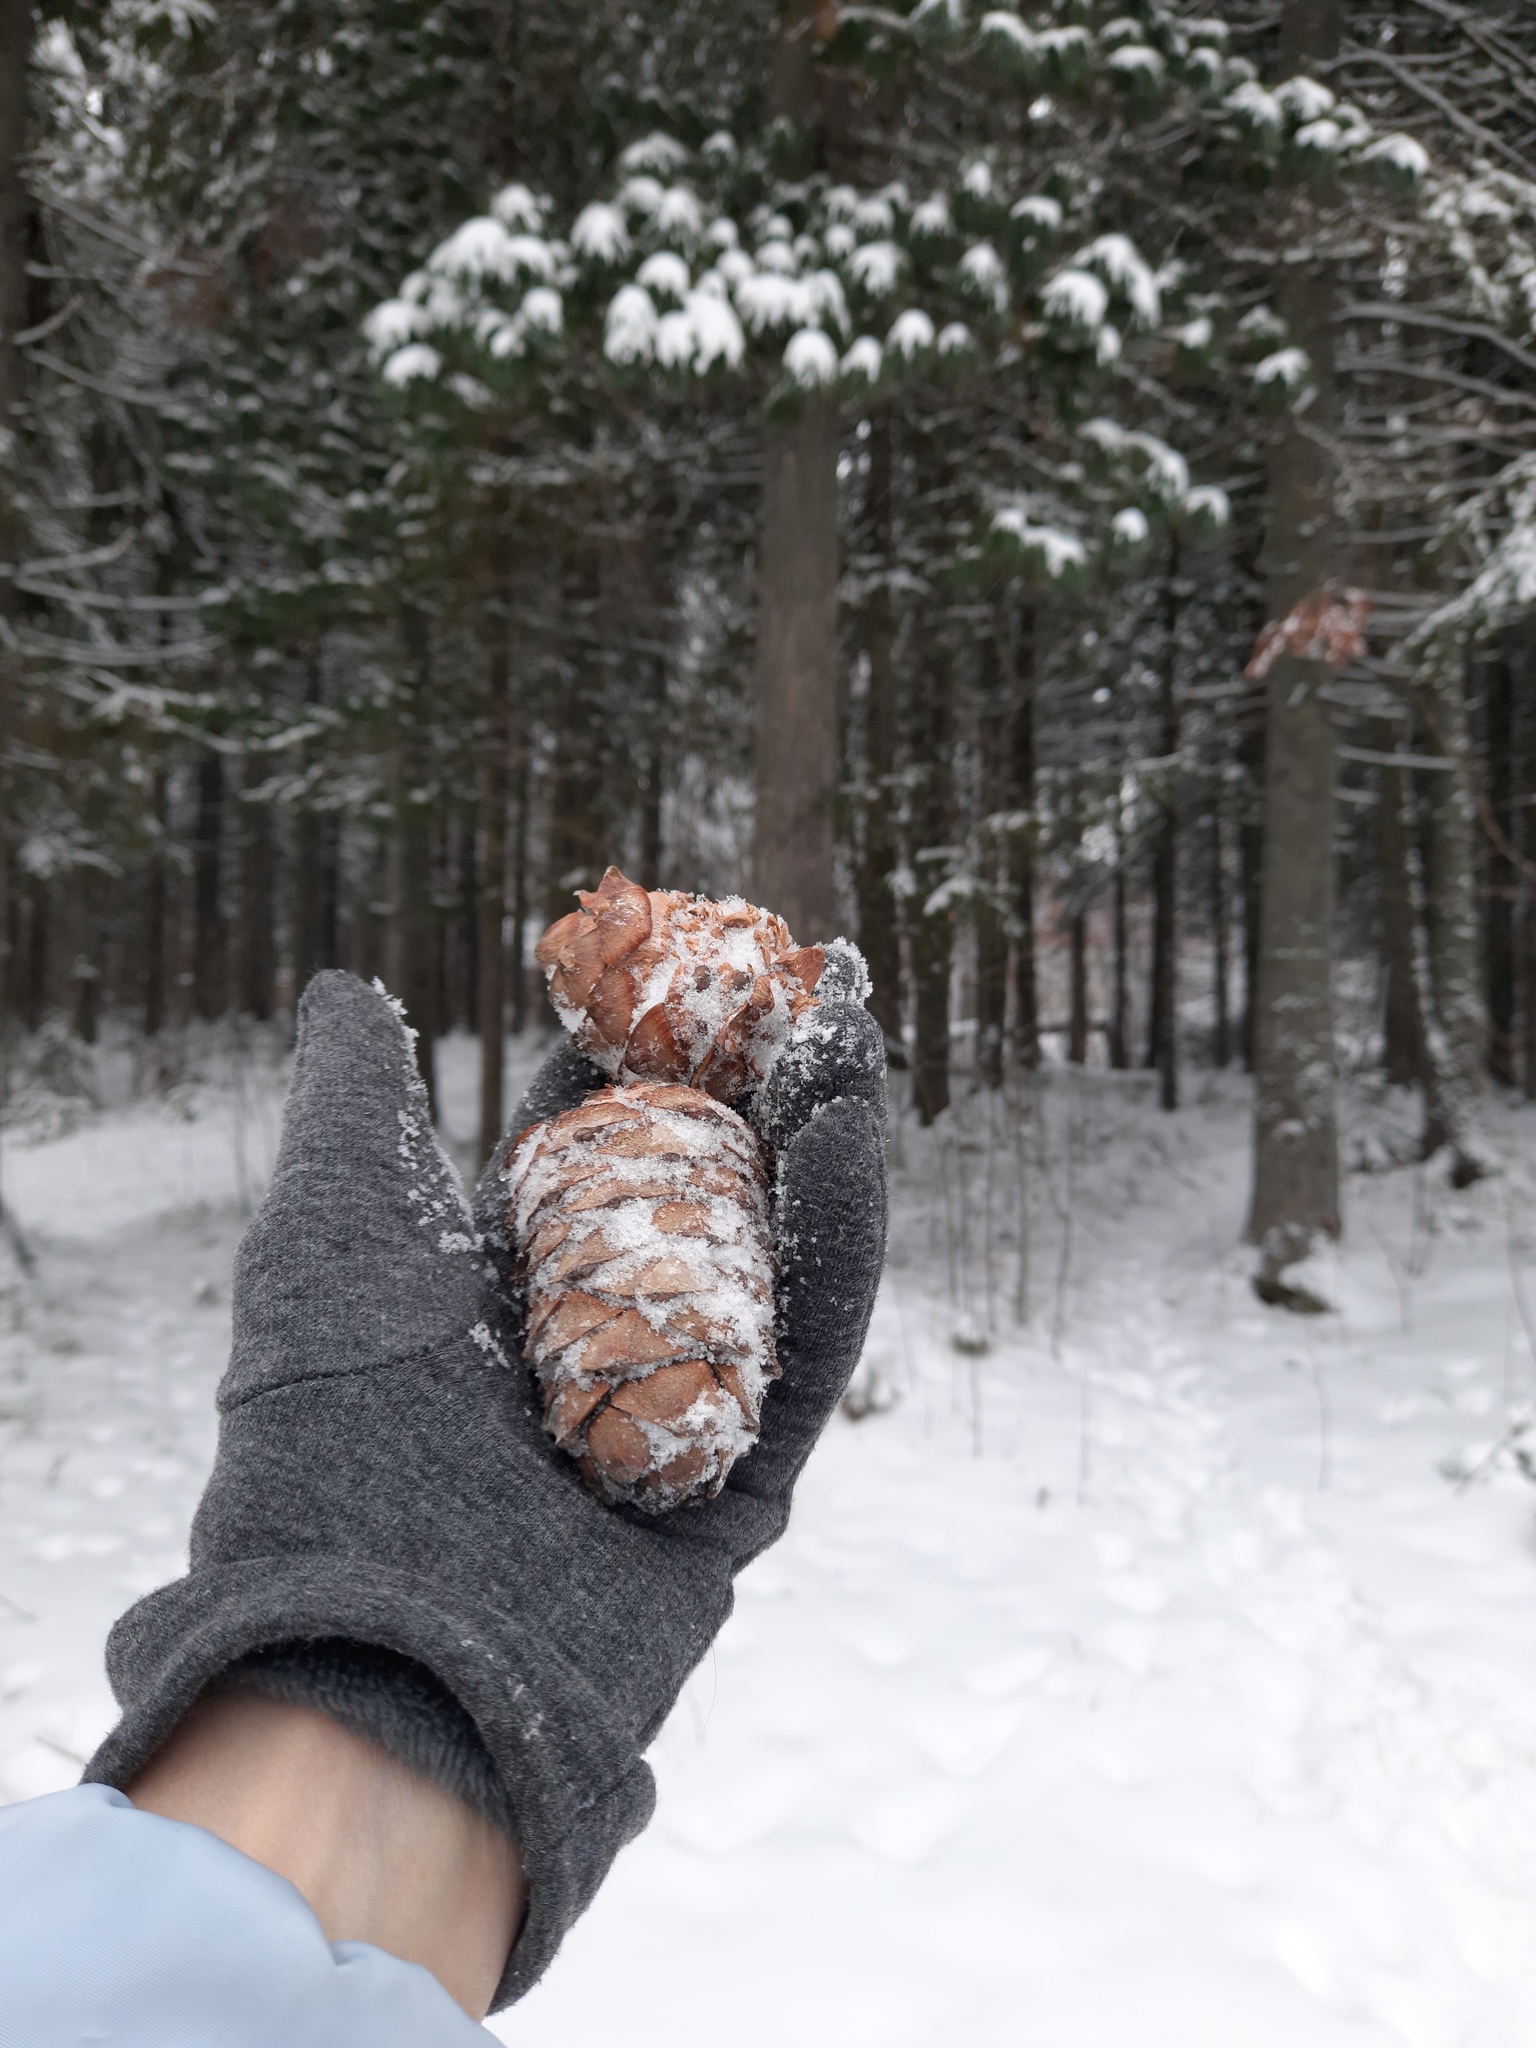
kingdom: Plantae
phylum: Tracheophyta
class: Pinopsida
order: Pinales
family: Pinaceae
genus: Pinus
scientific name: Pinus sibirica
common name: Siberian pine
